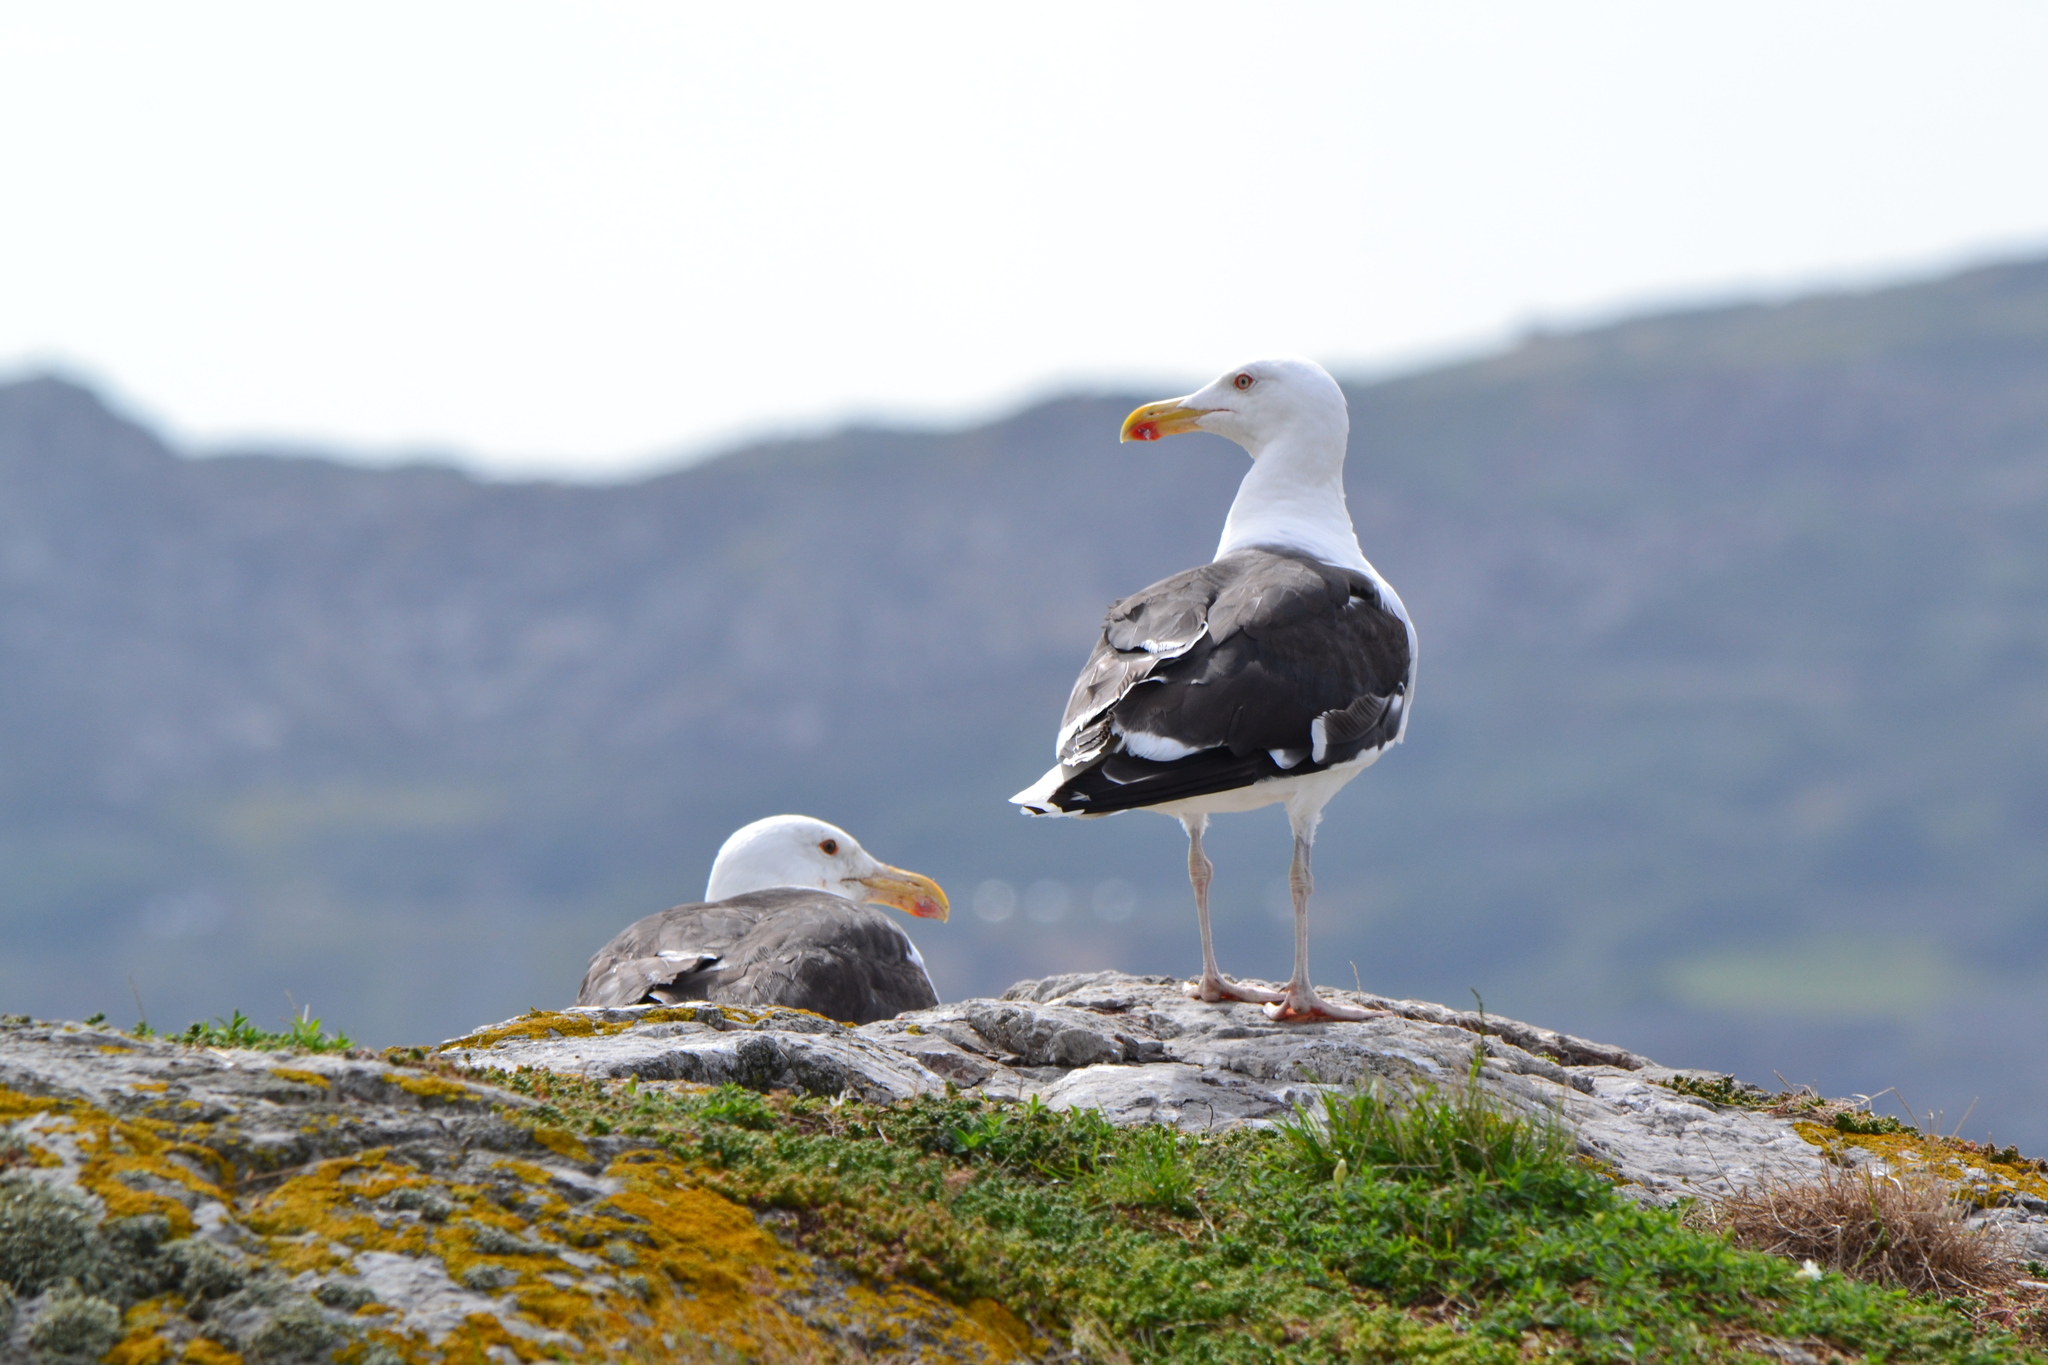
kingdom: Animalia
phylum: Chordata
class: Aves
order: Charadriiformes
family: Laridae
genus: Larus
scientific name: Larus marinus
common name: Great black-backed gull
